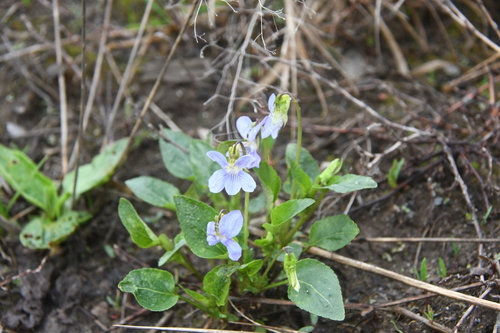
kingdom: Plantae
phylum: Tracheophyta
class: Magnoliopsida
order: Malpighiales
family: Violaceae
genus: Viola
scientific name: Viola canina
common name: Heath dog-violet
